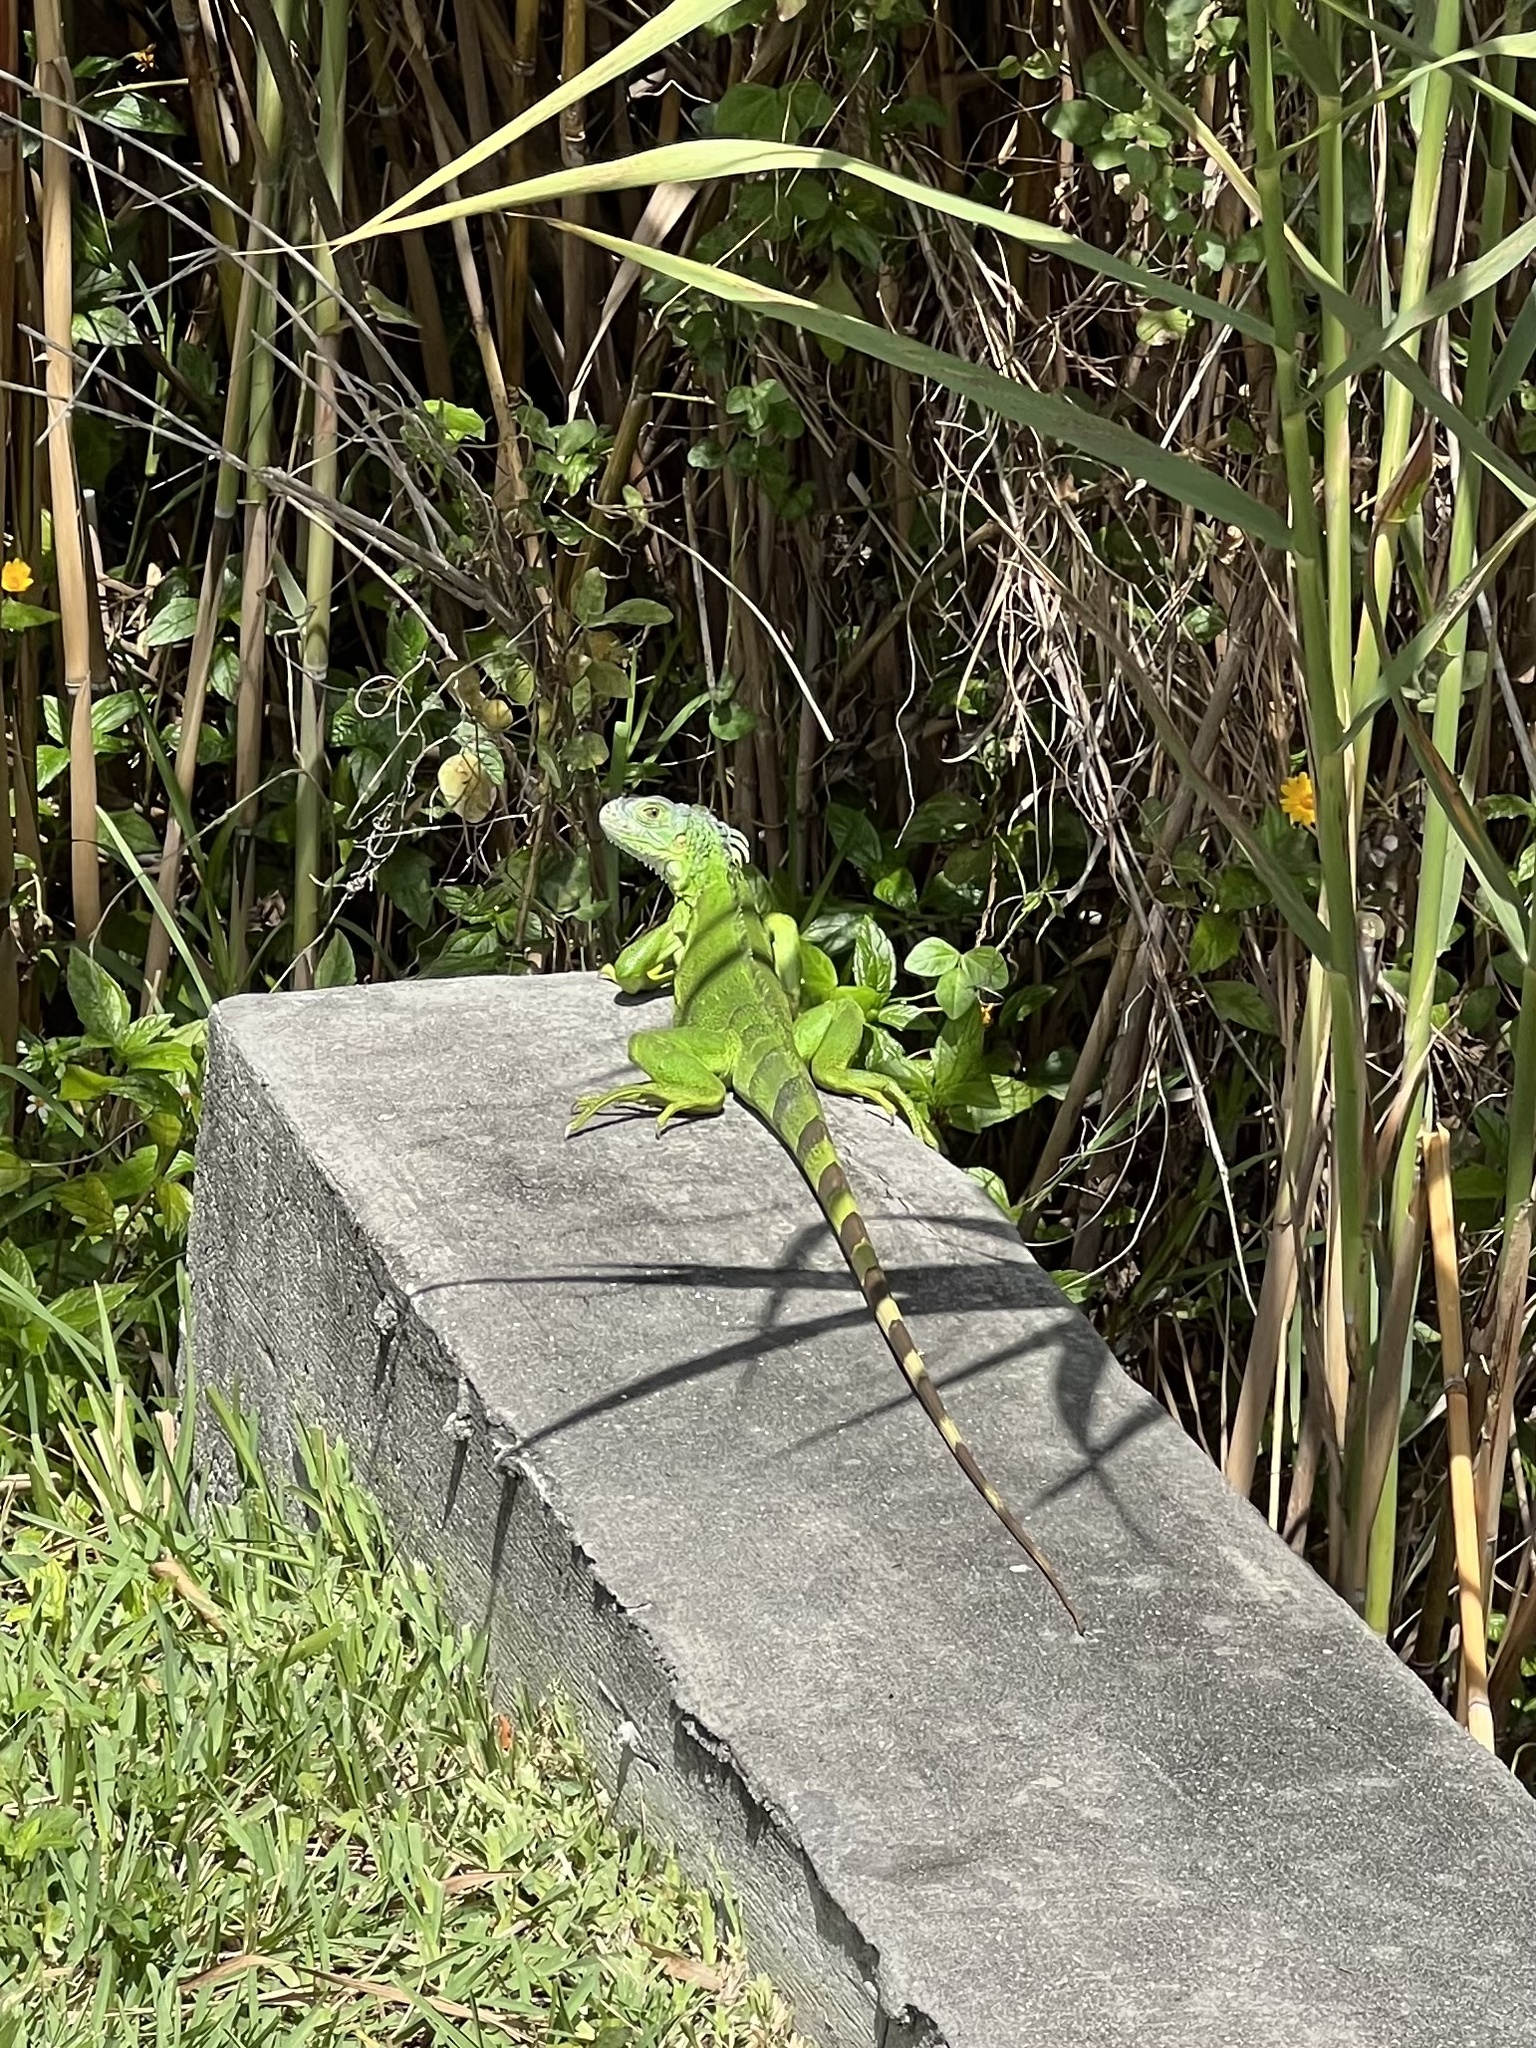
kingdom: Animalia
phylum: Chordata
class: Squamata
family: Iguanidae
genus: Iguana
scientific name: Iguana iguana
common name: Green iguana
